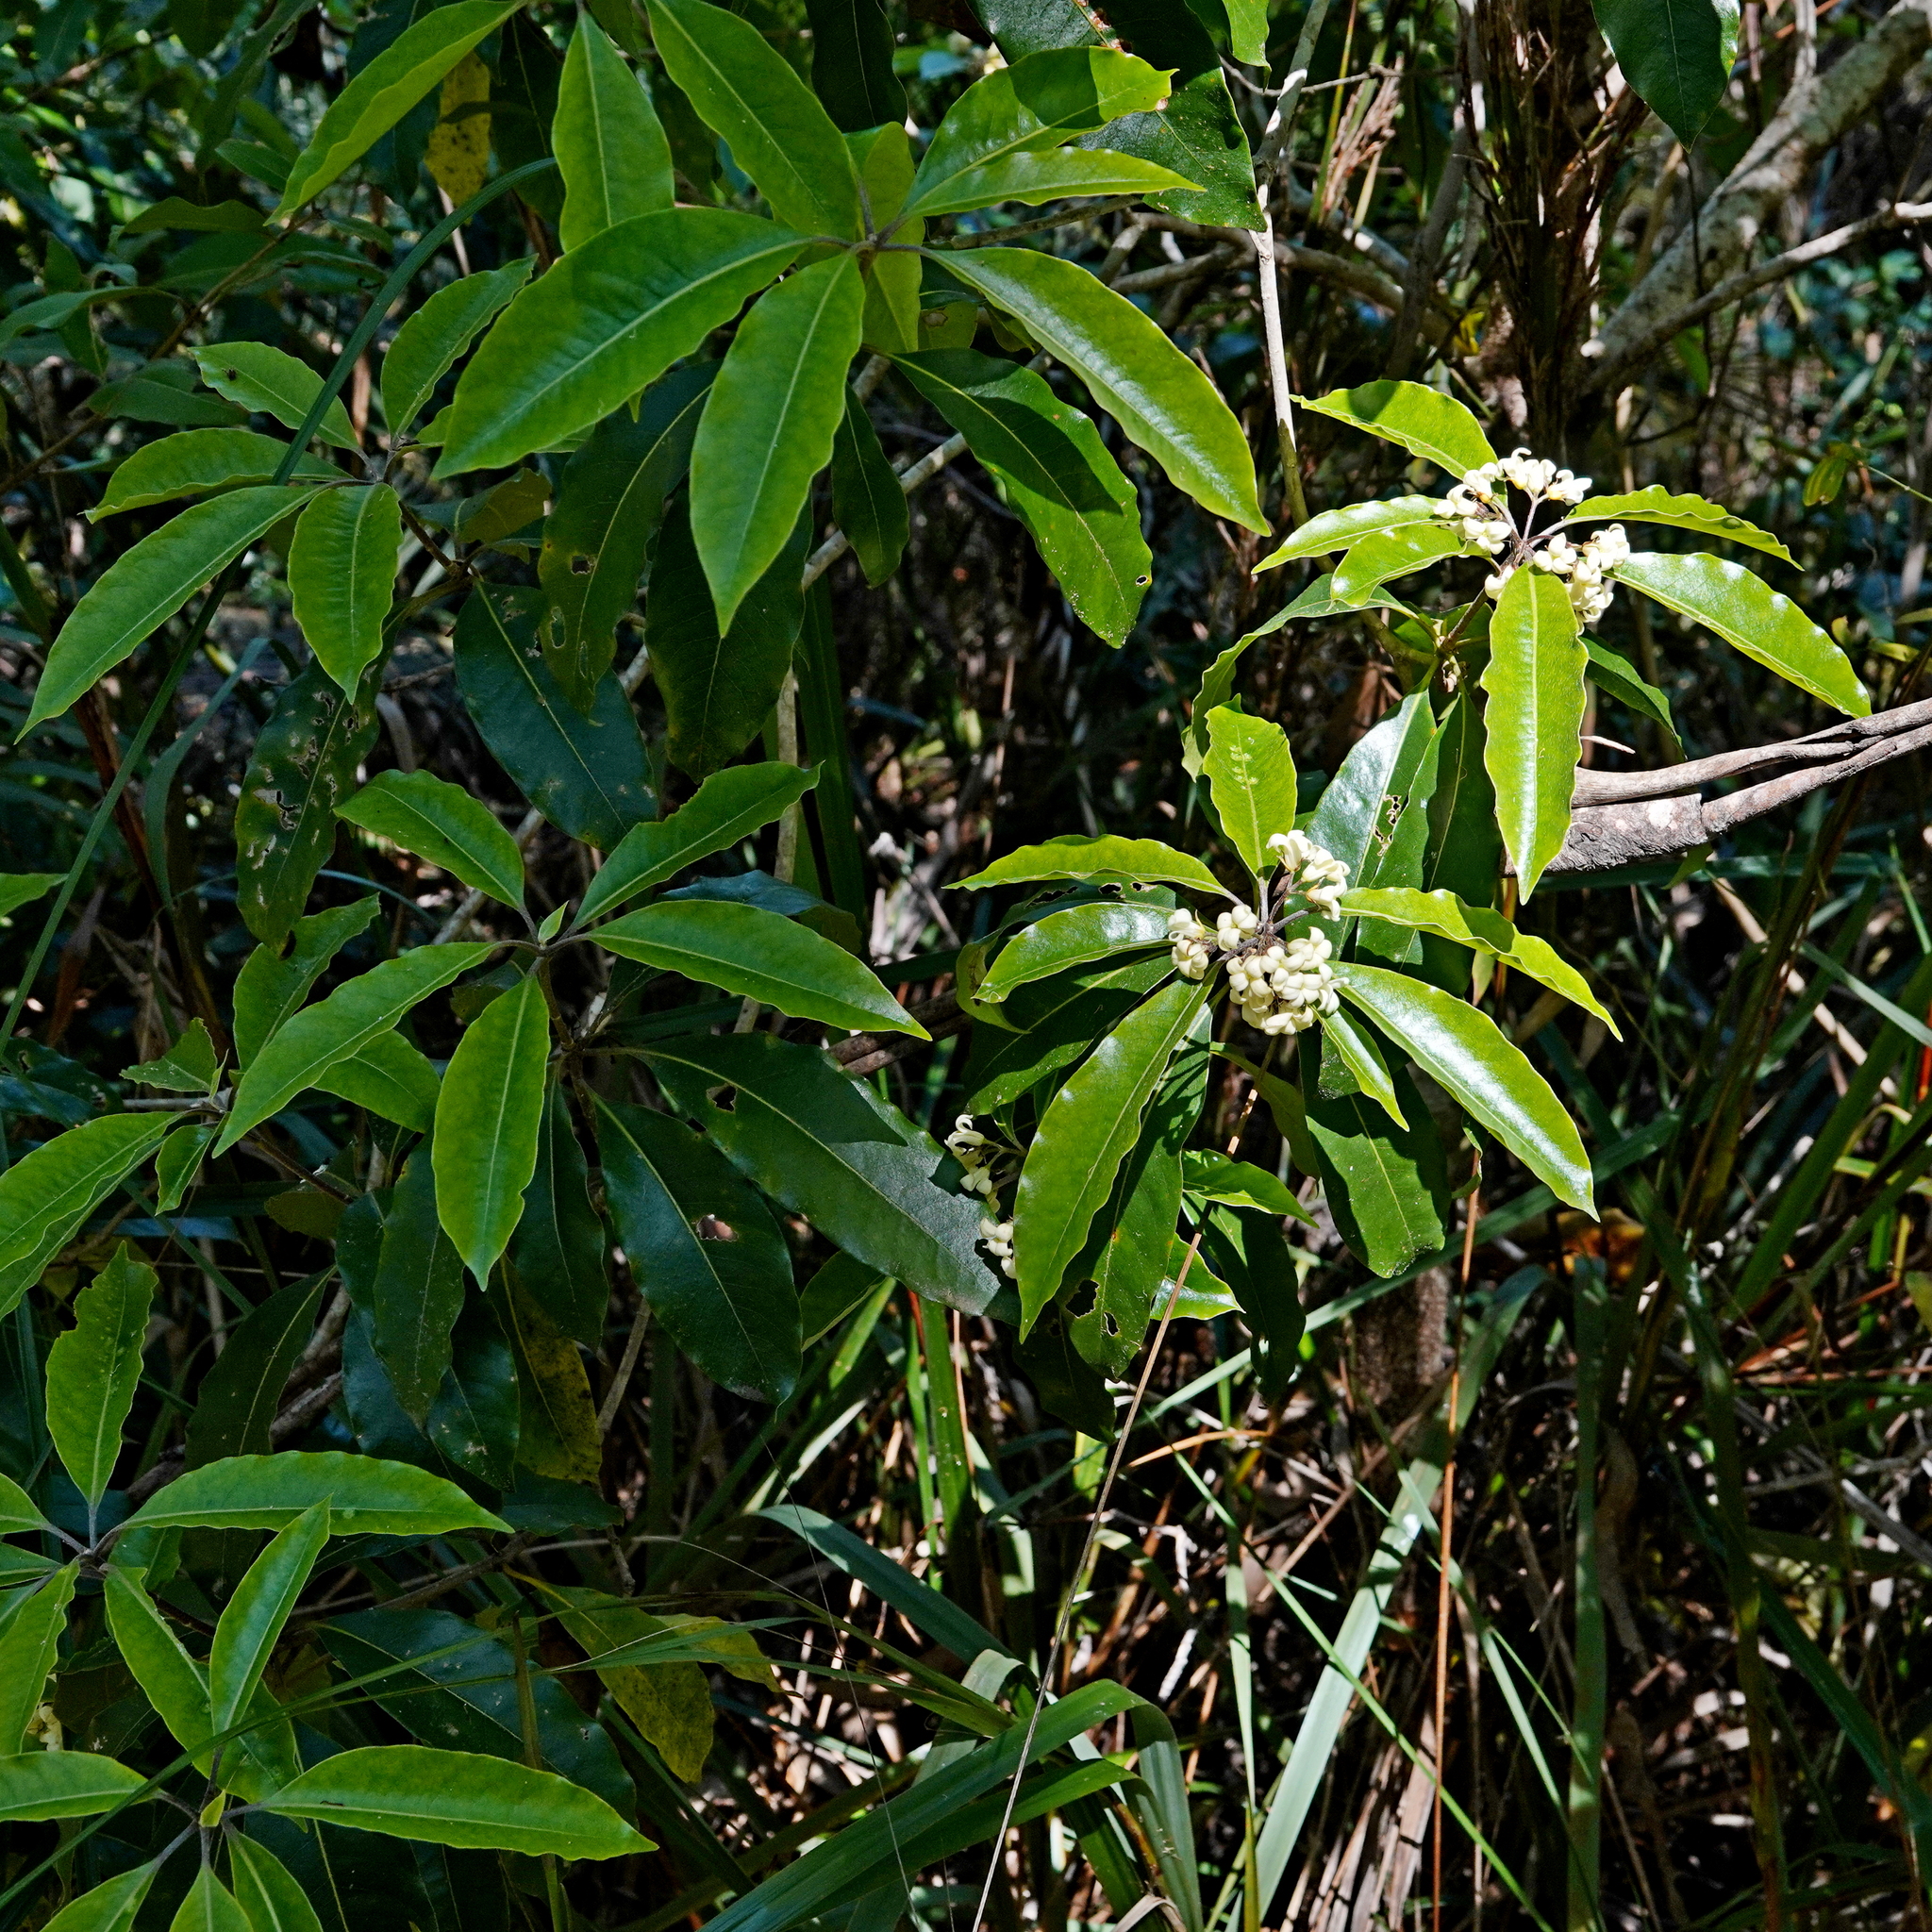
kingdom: Plantae
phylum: Tracheophyta
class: Magnoliopsida
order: Apiales
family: Pittosporaceae
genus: Pittosporum
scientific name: Pittosporum undulatum
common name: Australian cheesewood
